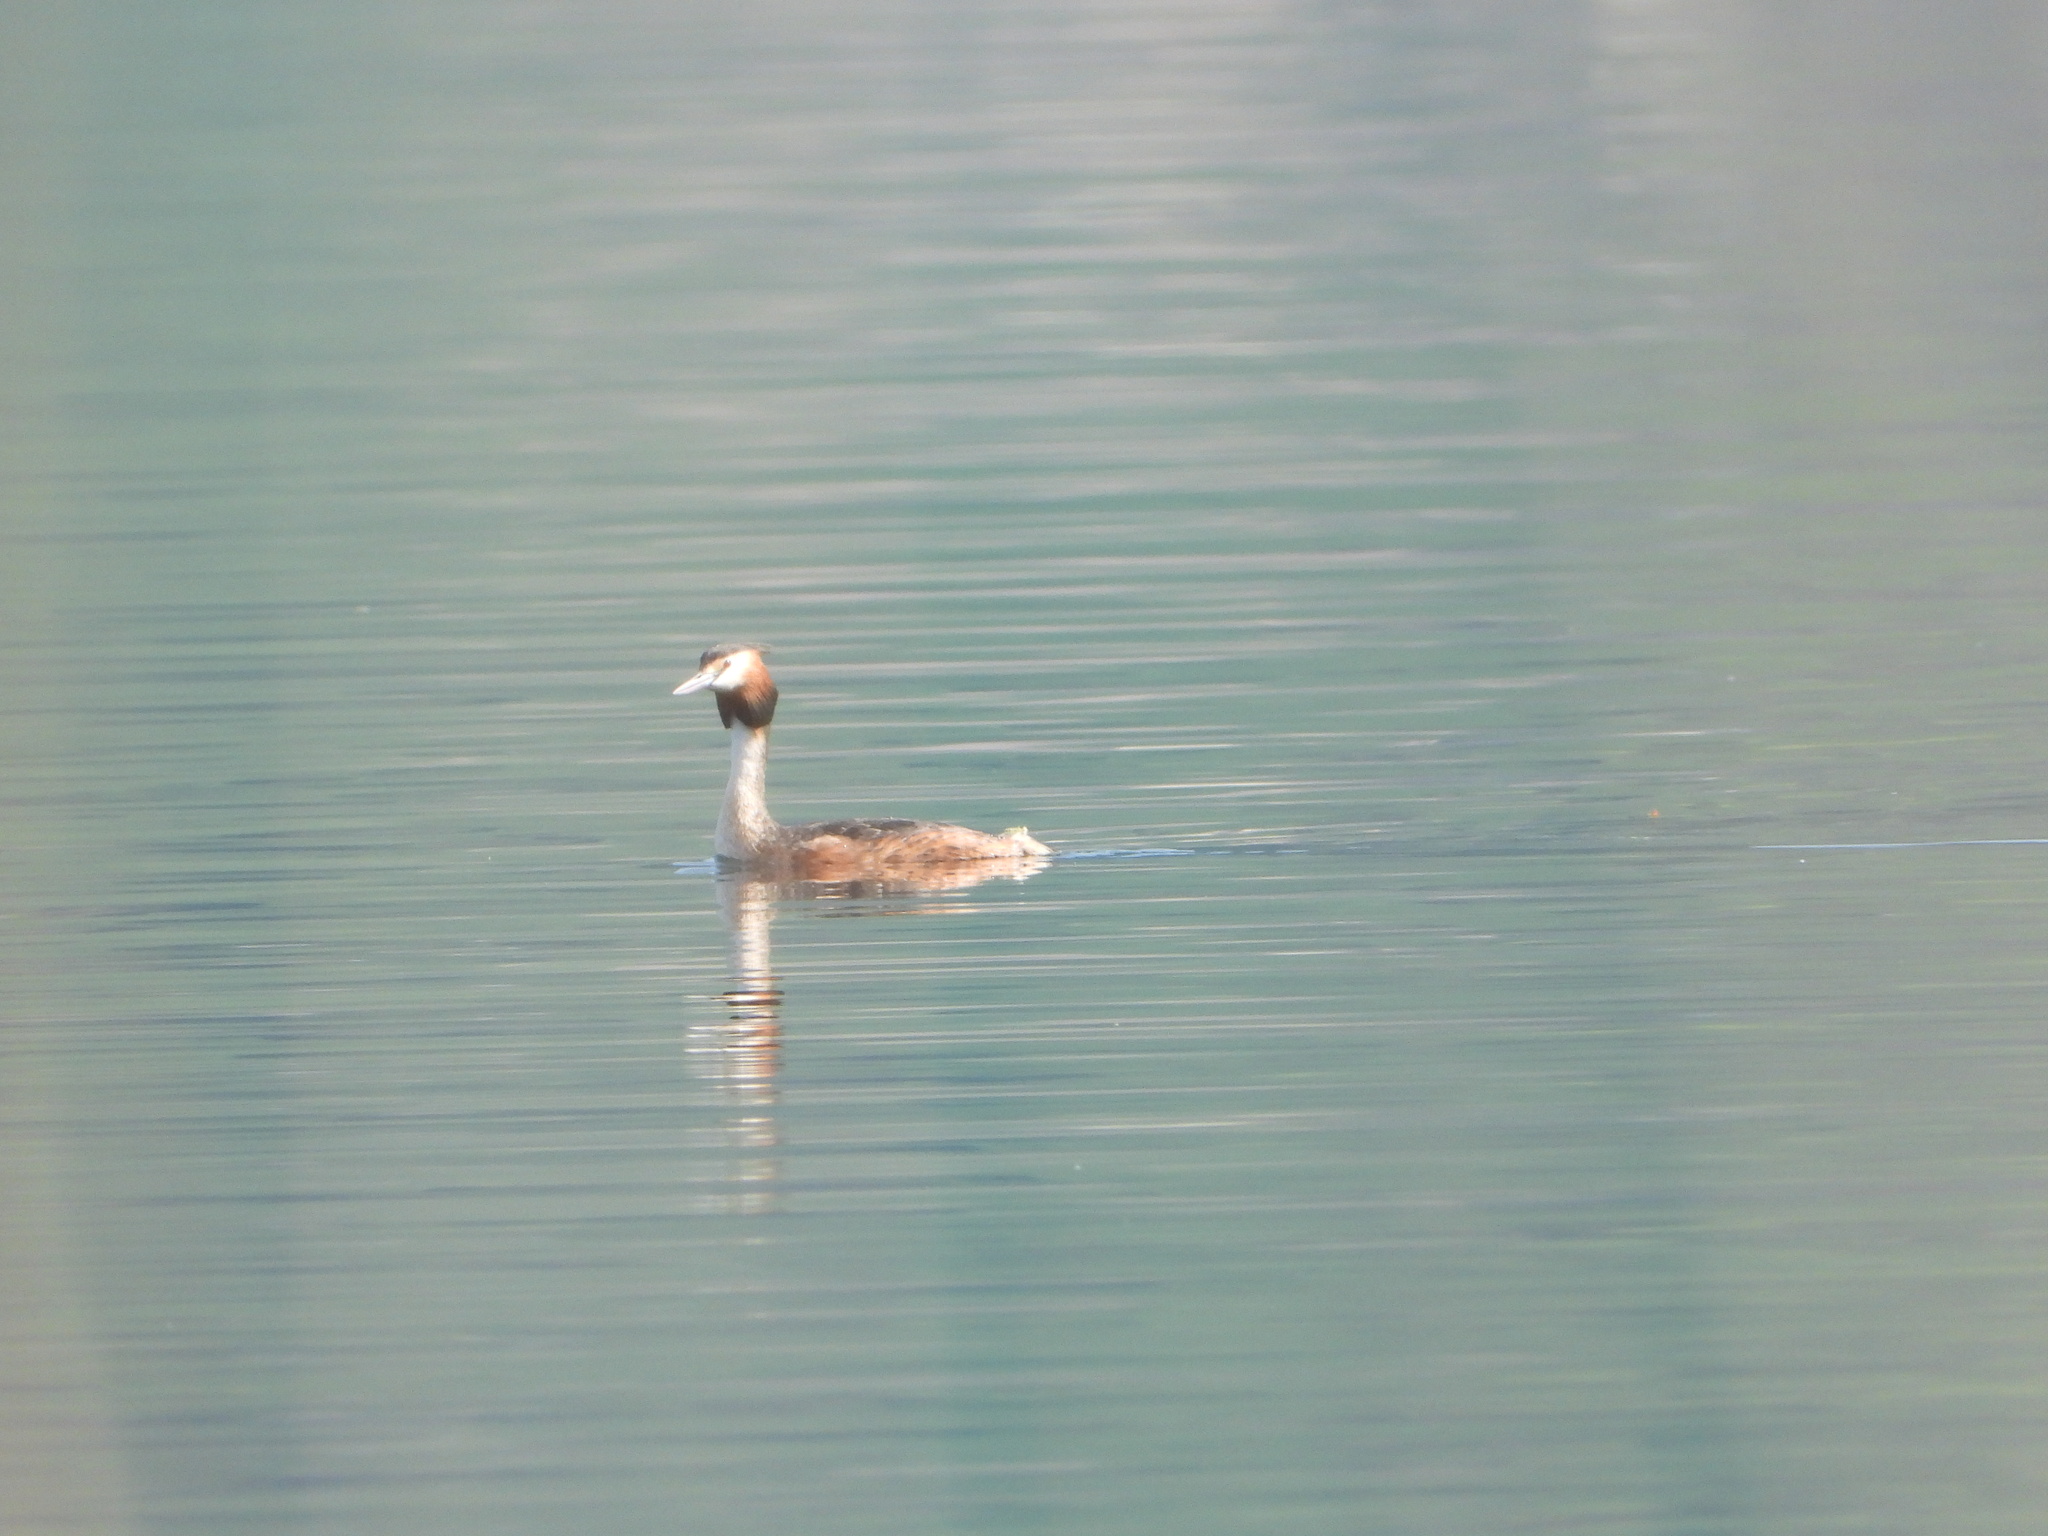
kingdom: Animalia
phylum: Chordata
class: Aves
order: Podicipediformes
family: Podicipedidae
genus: Podiceps
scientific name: Podiceps cristatus
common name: Great crested grebe
